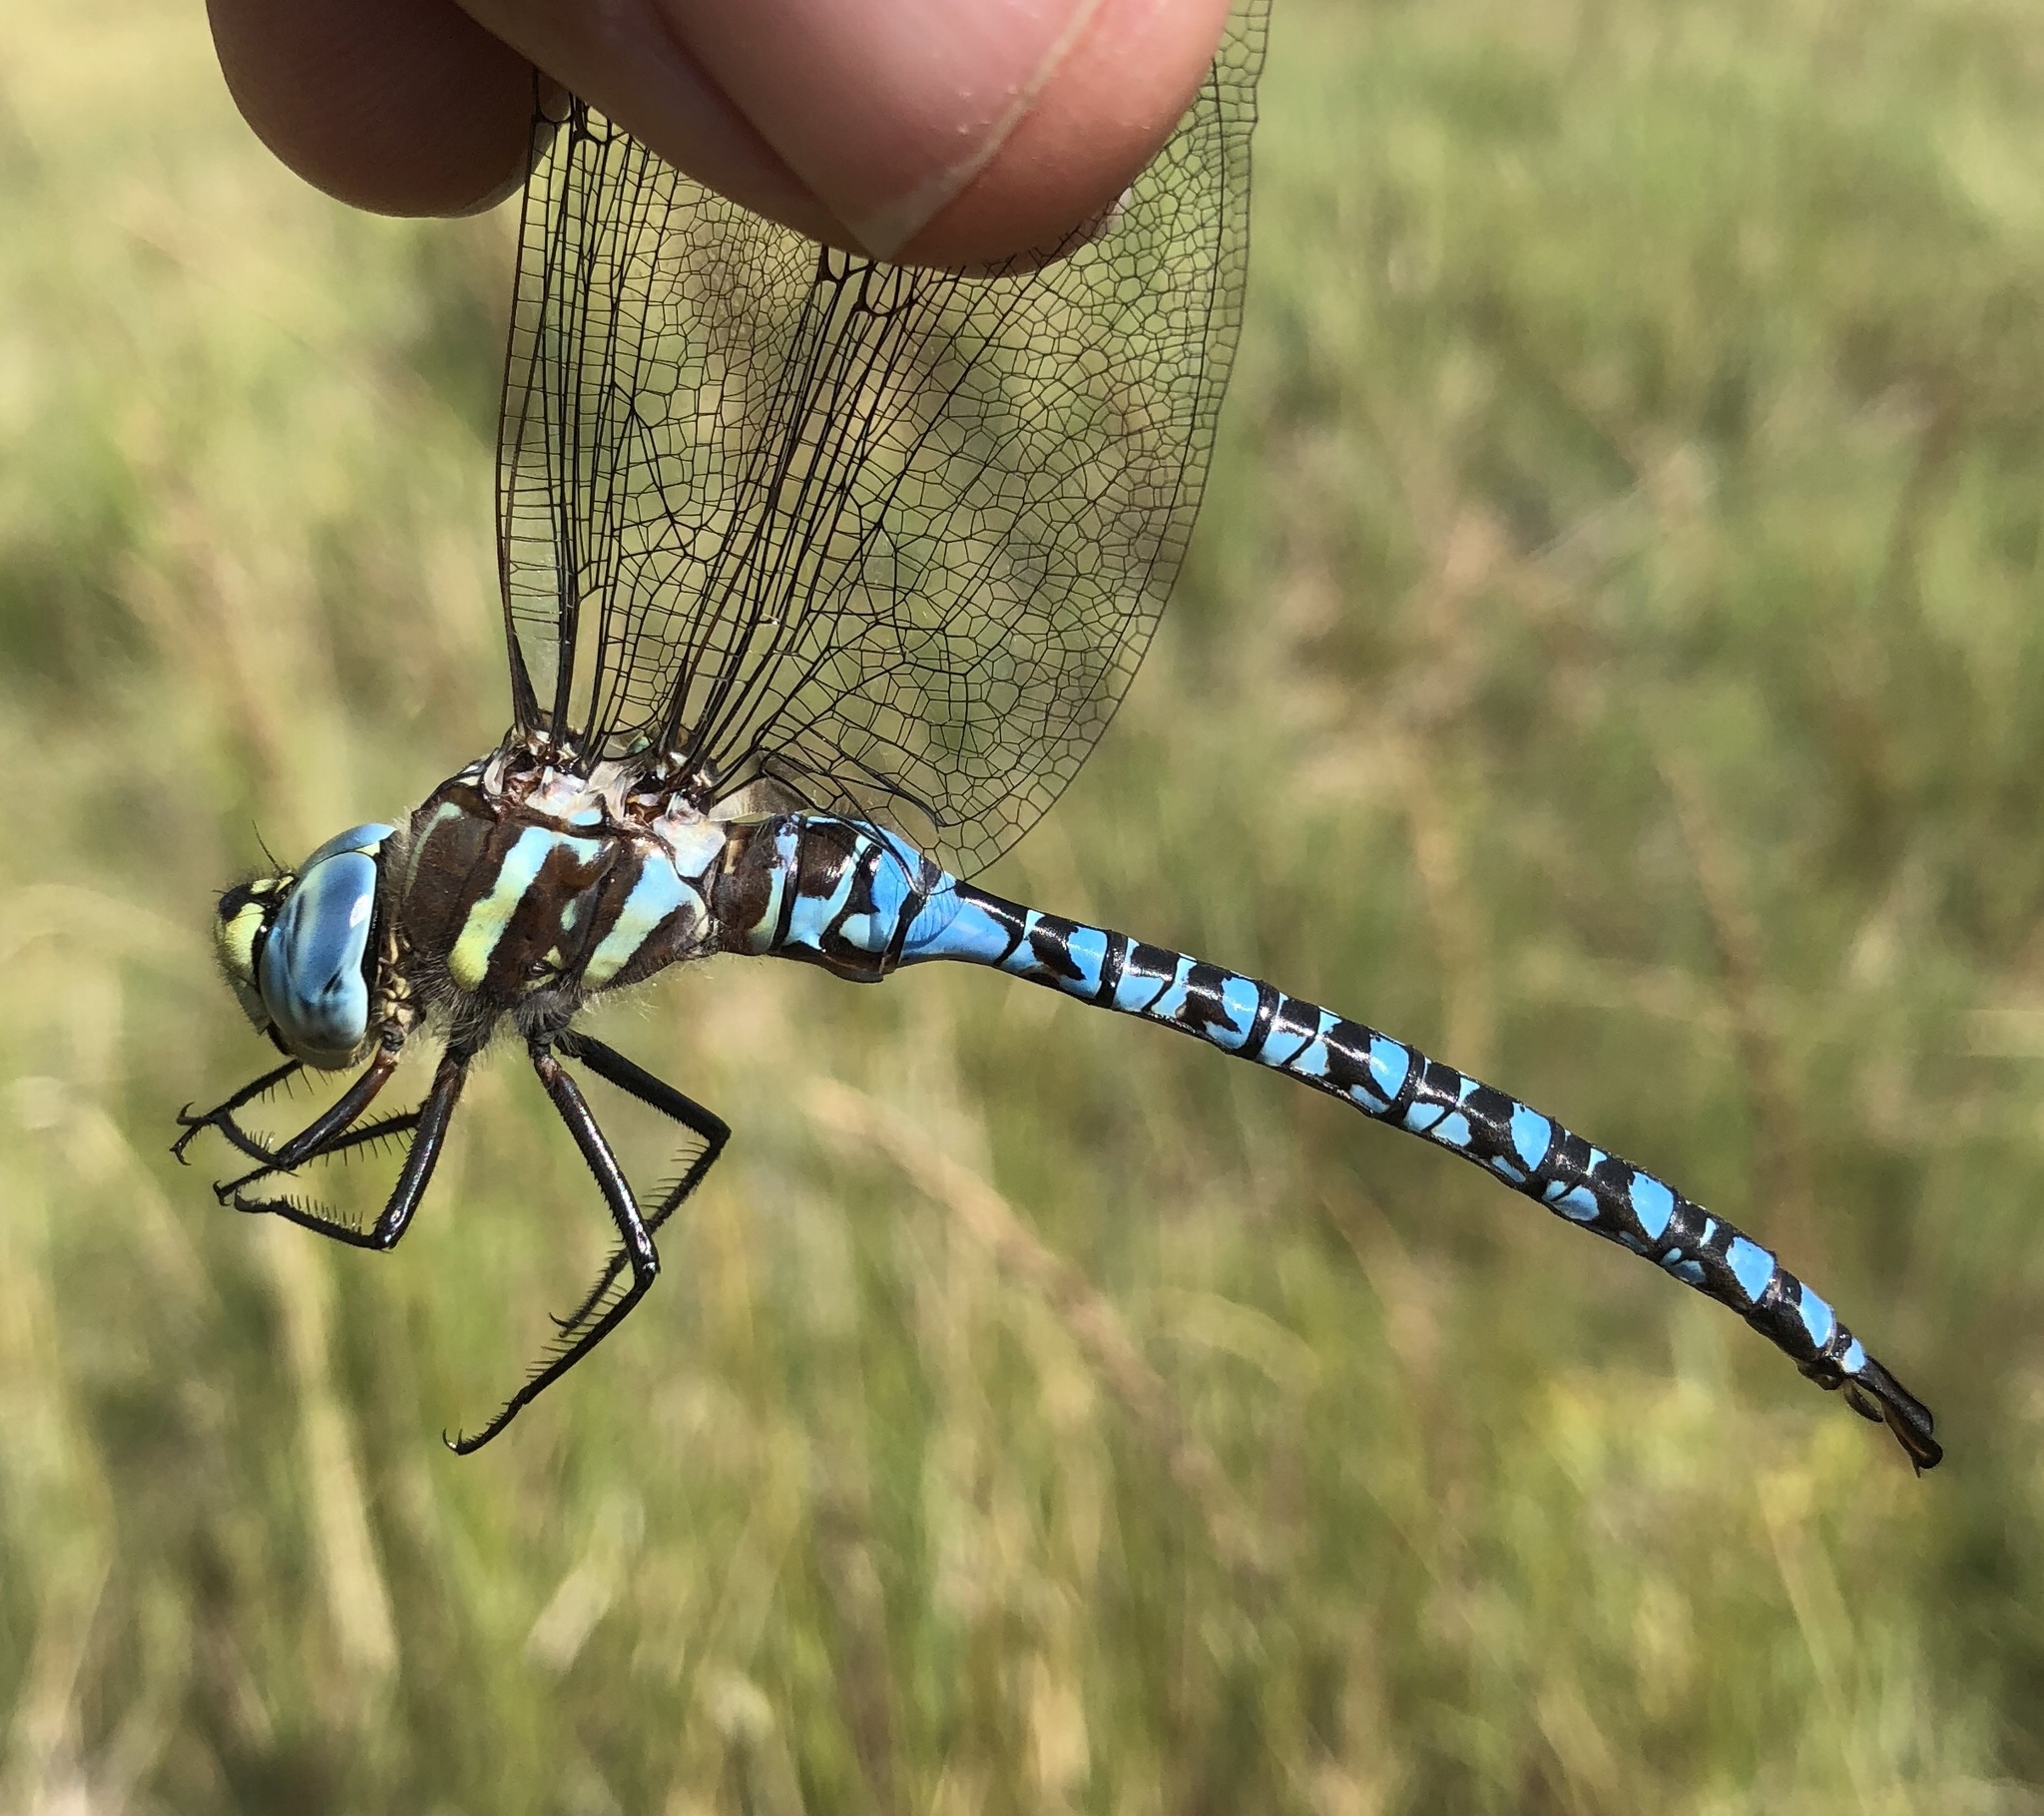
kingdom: Animalia
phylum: Arthropoda
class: Insecta
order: Odonata
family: Aeshnidae
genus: Aeshna
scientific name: Aeshna palmata
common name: Paddle-tailed darner
